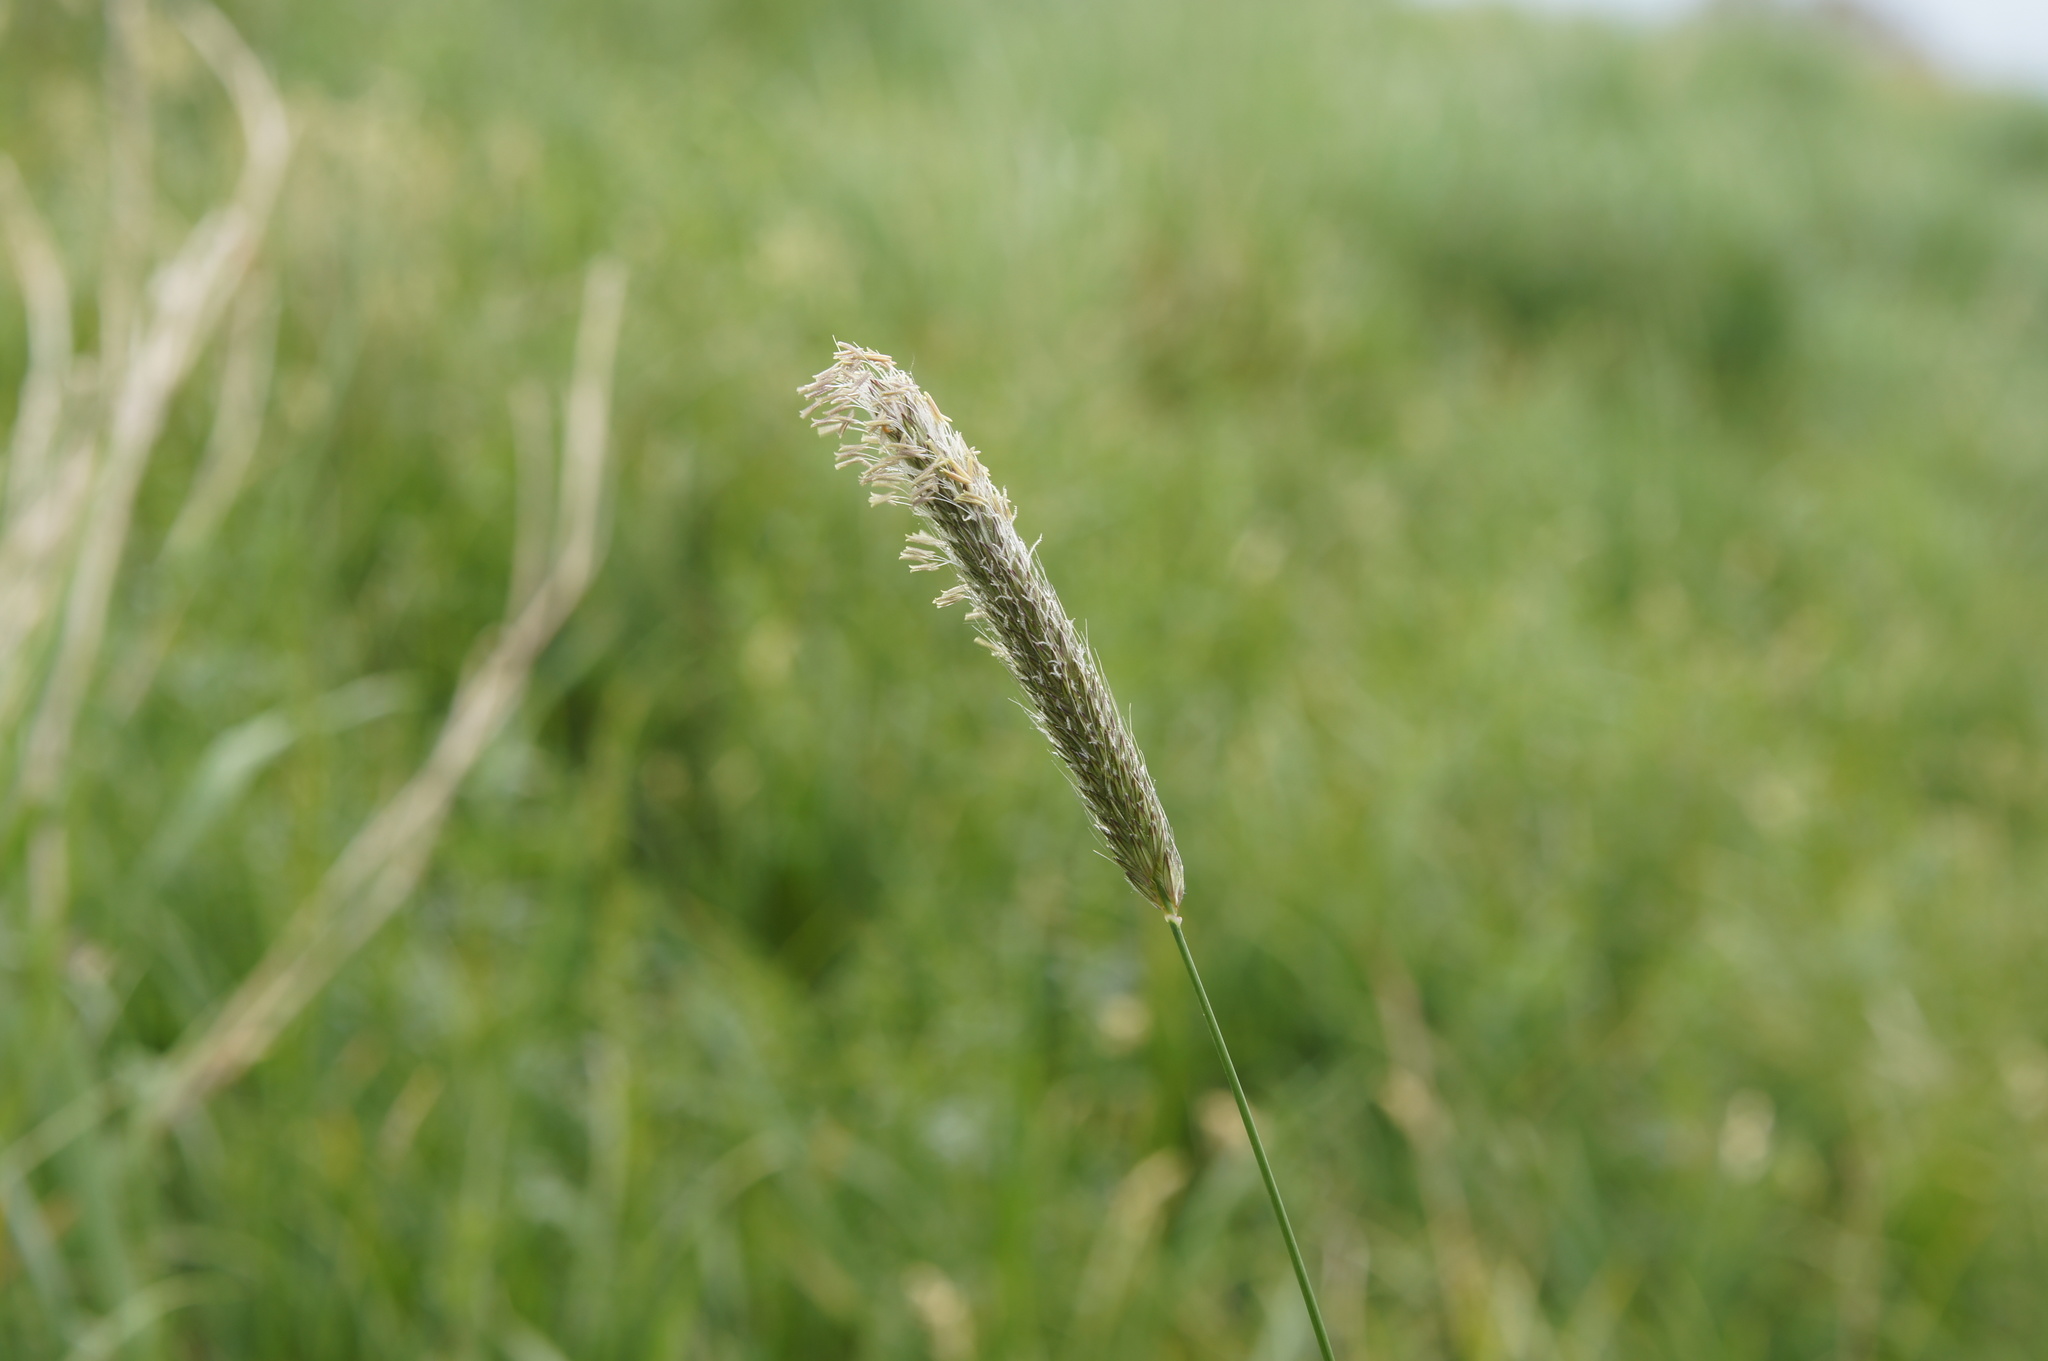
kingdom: Plantae
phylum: Tracheophyta
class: Liliopsida
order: Poales
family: Poaceae
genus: Alopecurus
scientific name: Alopecurus pratensis
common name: Meadow foxtail
